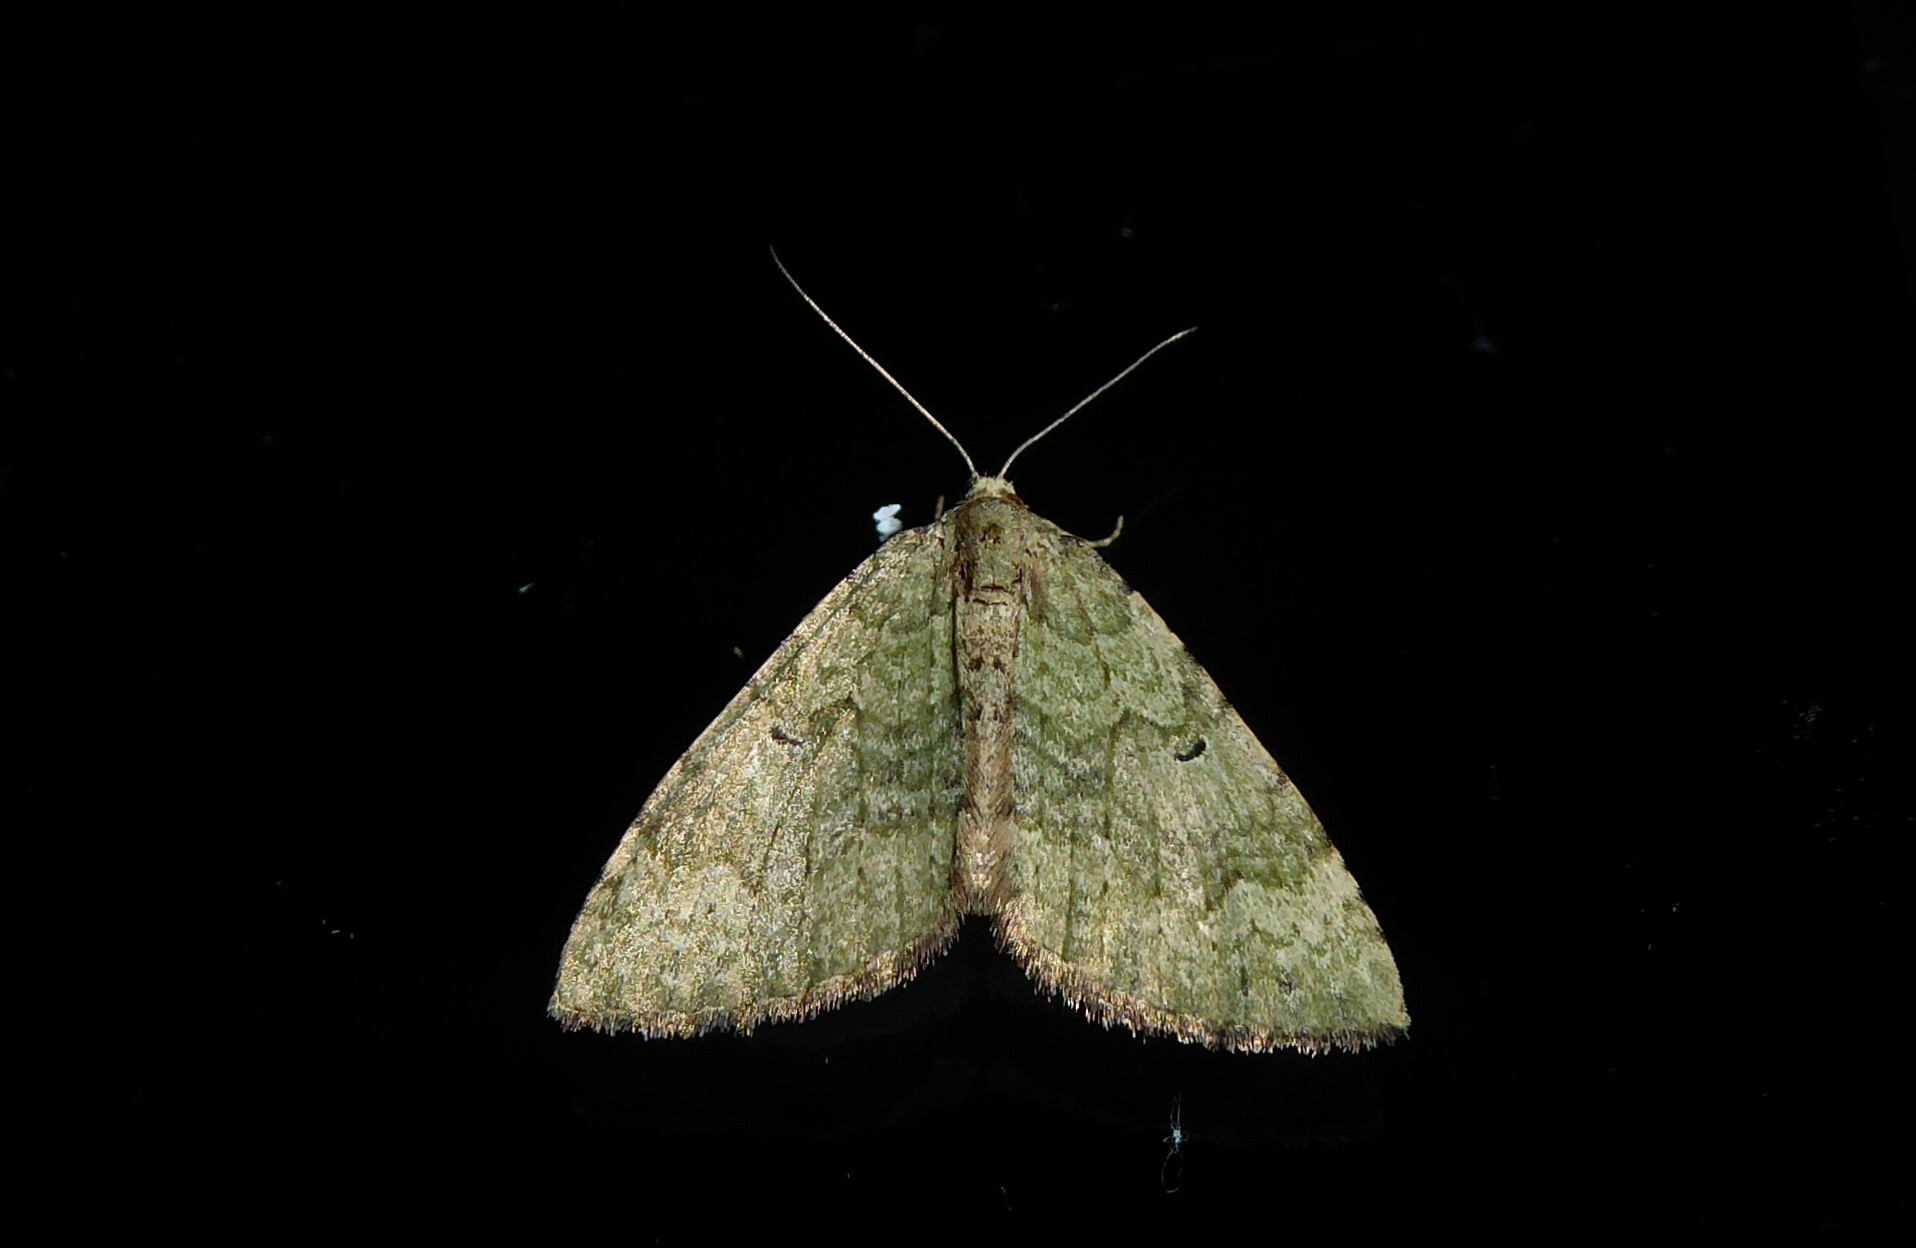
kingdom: Animalia
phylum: Arthropoda
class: Insecta
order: Lepidoptera
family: Geometridae
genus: Epyaxa
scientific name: Epyaxa rosearia
